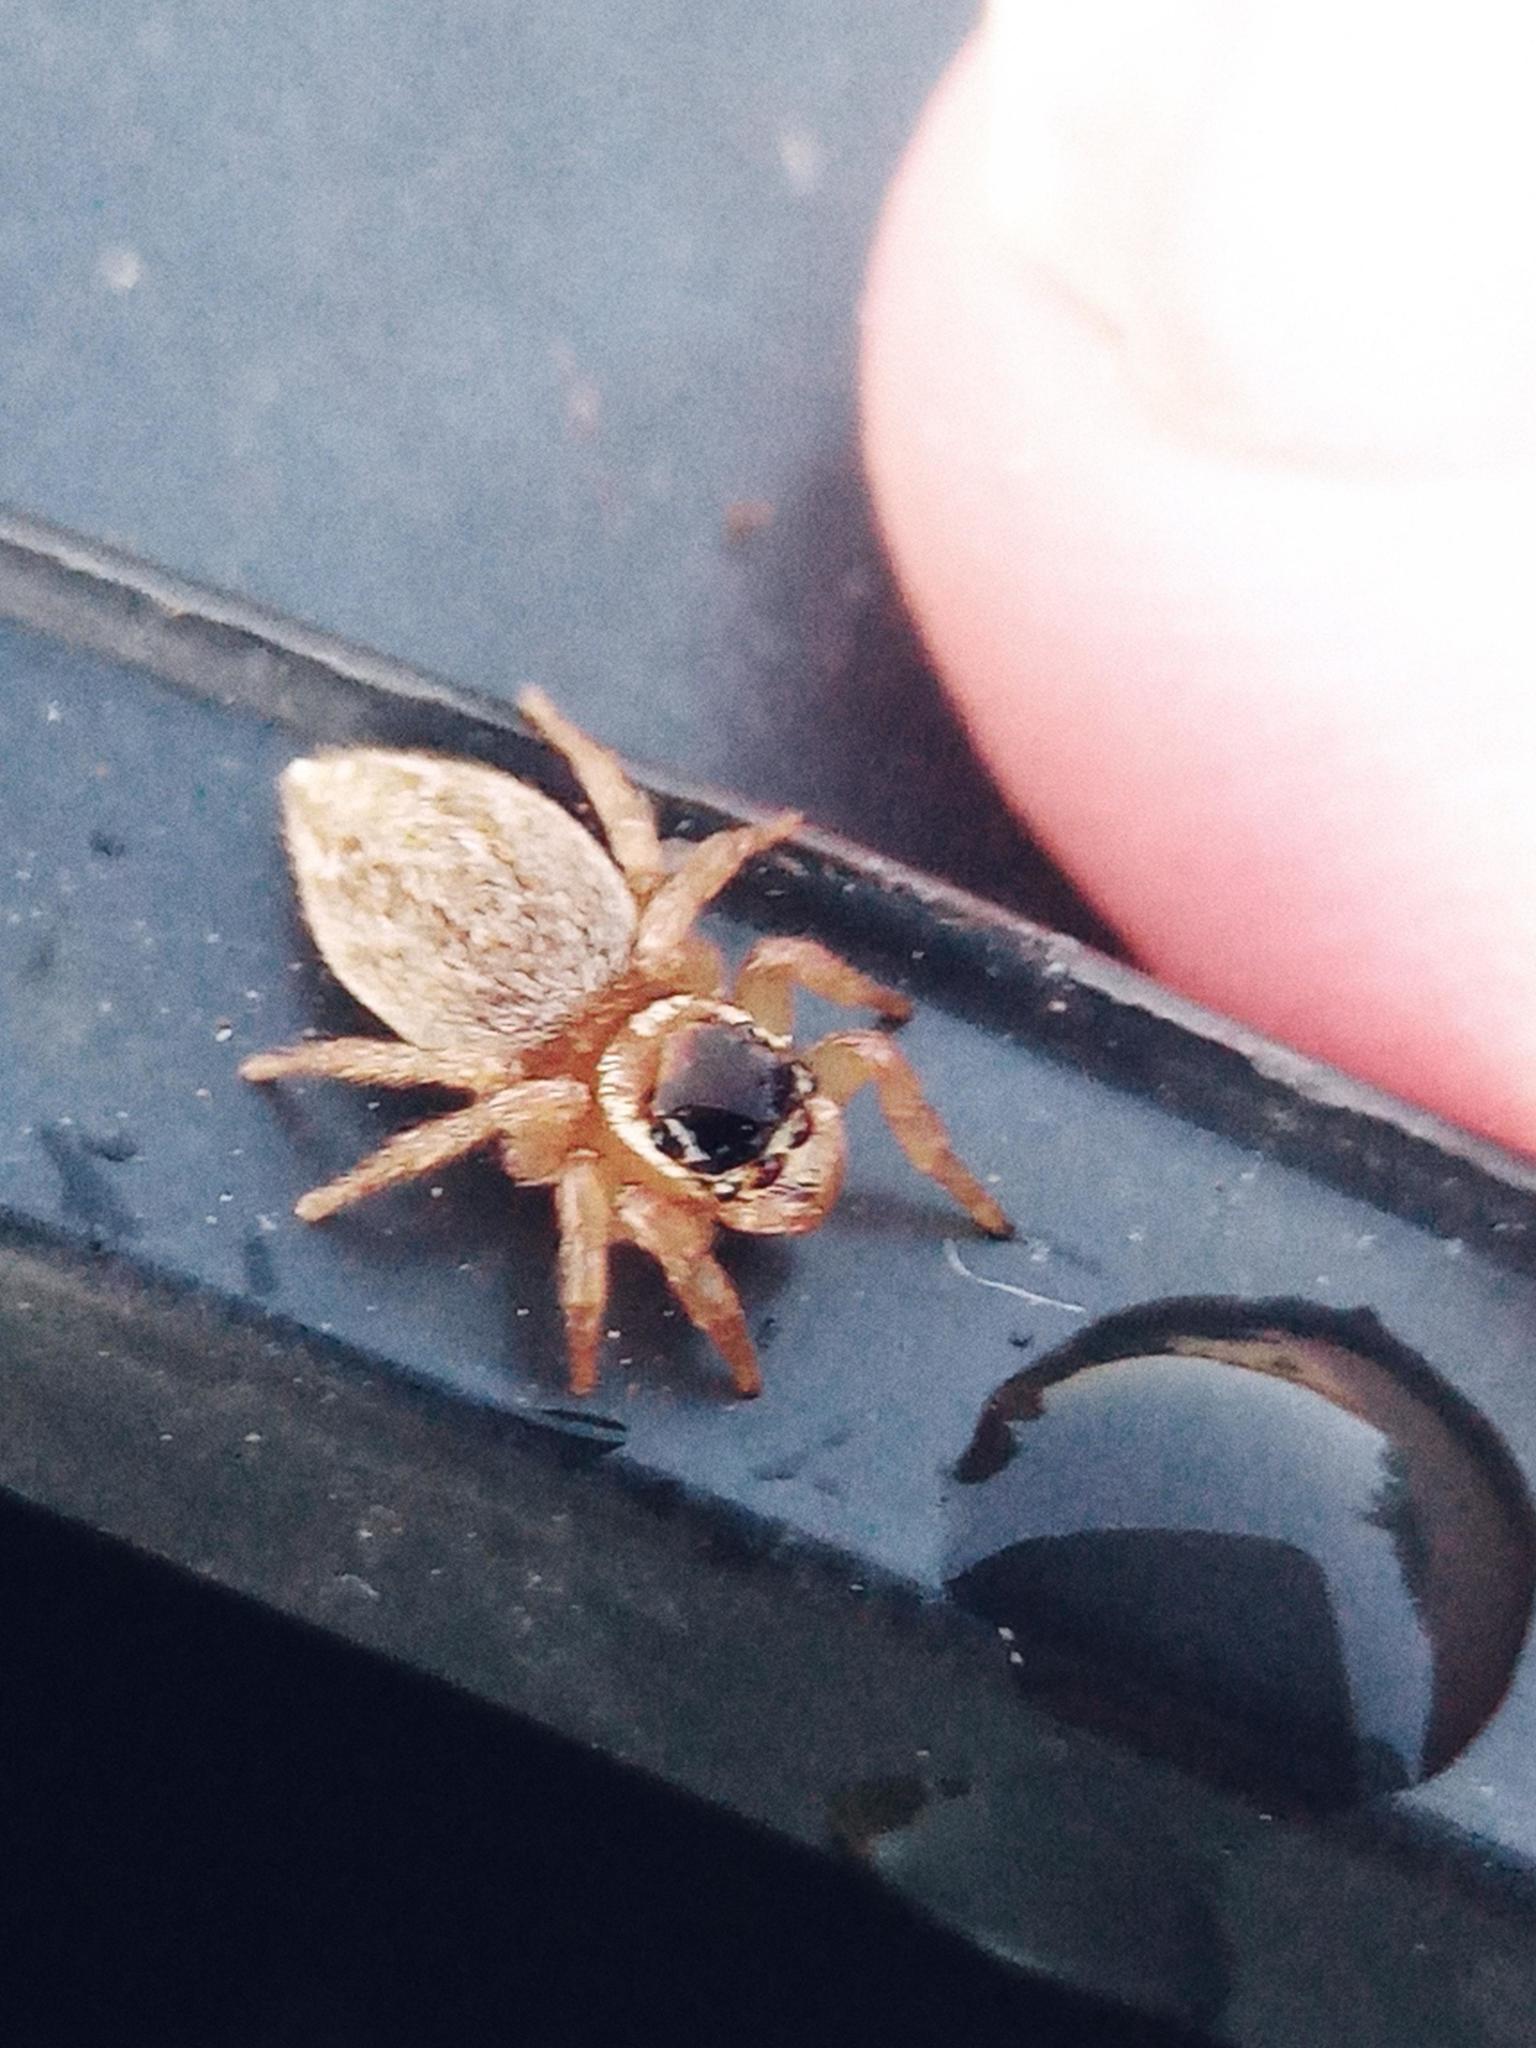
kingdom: Animalia
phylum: Arthropoda
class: Arachnida
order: Araneae
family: Salticidae
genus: Maratus
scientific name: Maratus griseus
